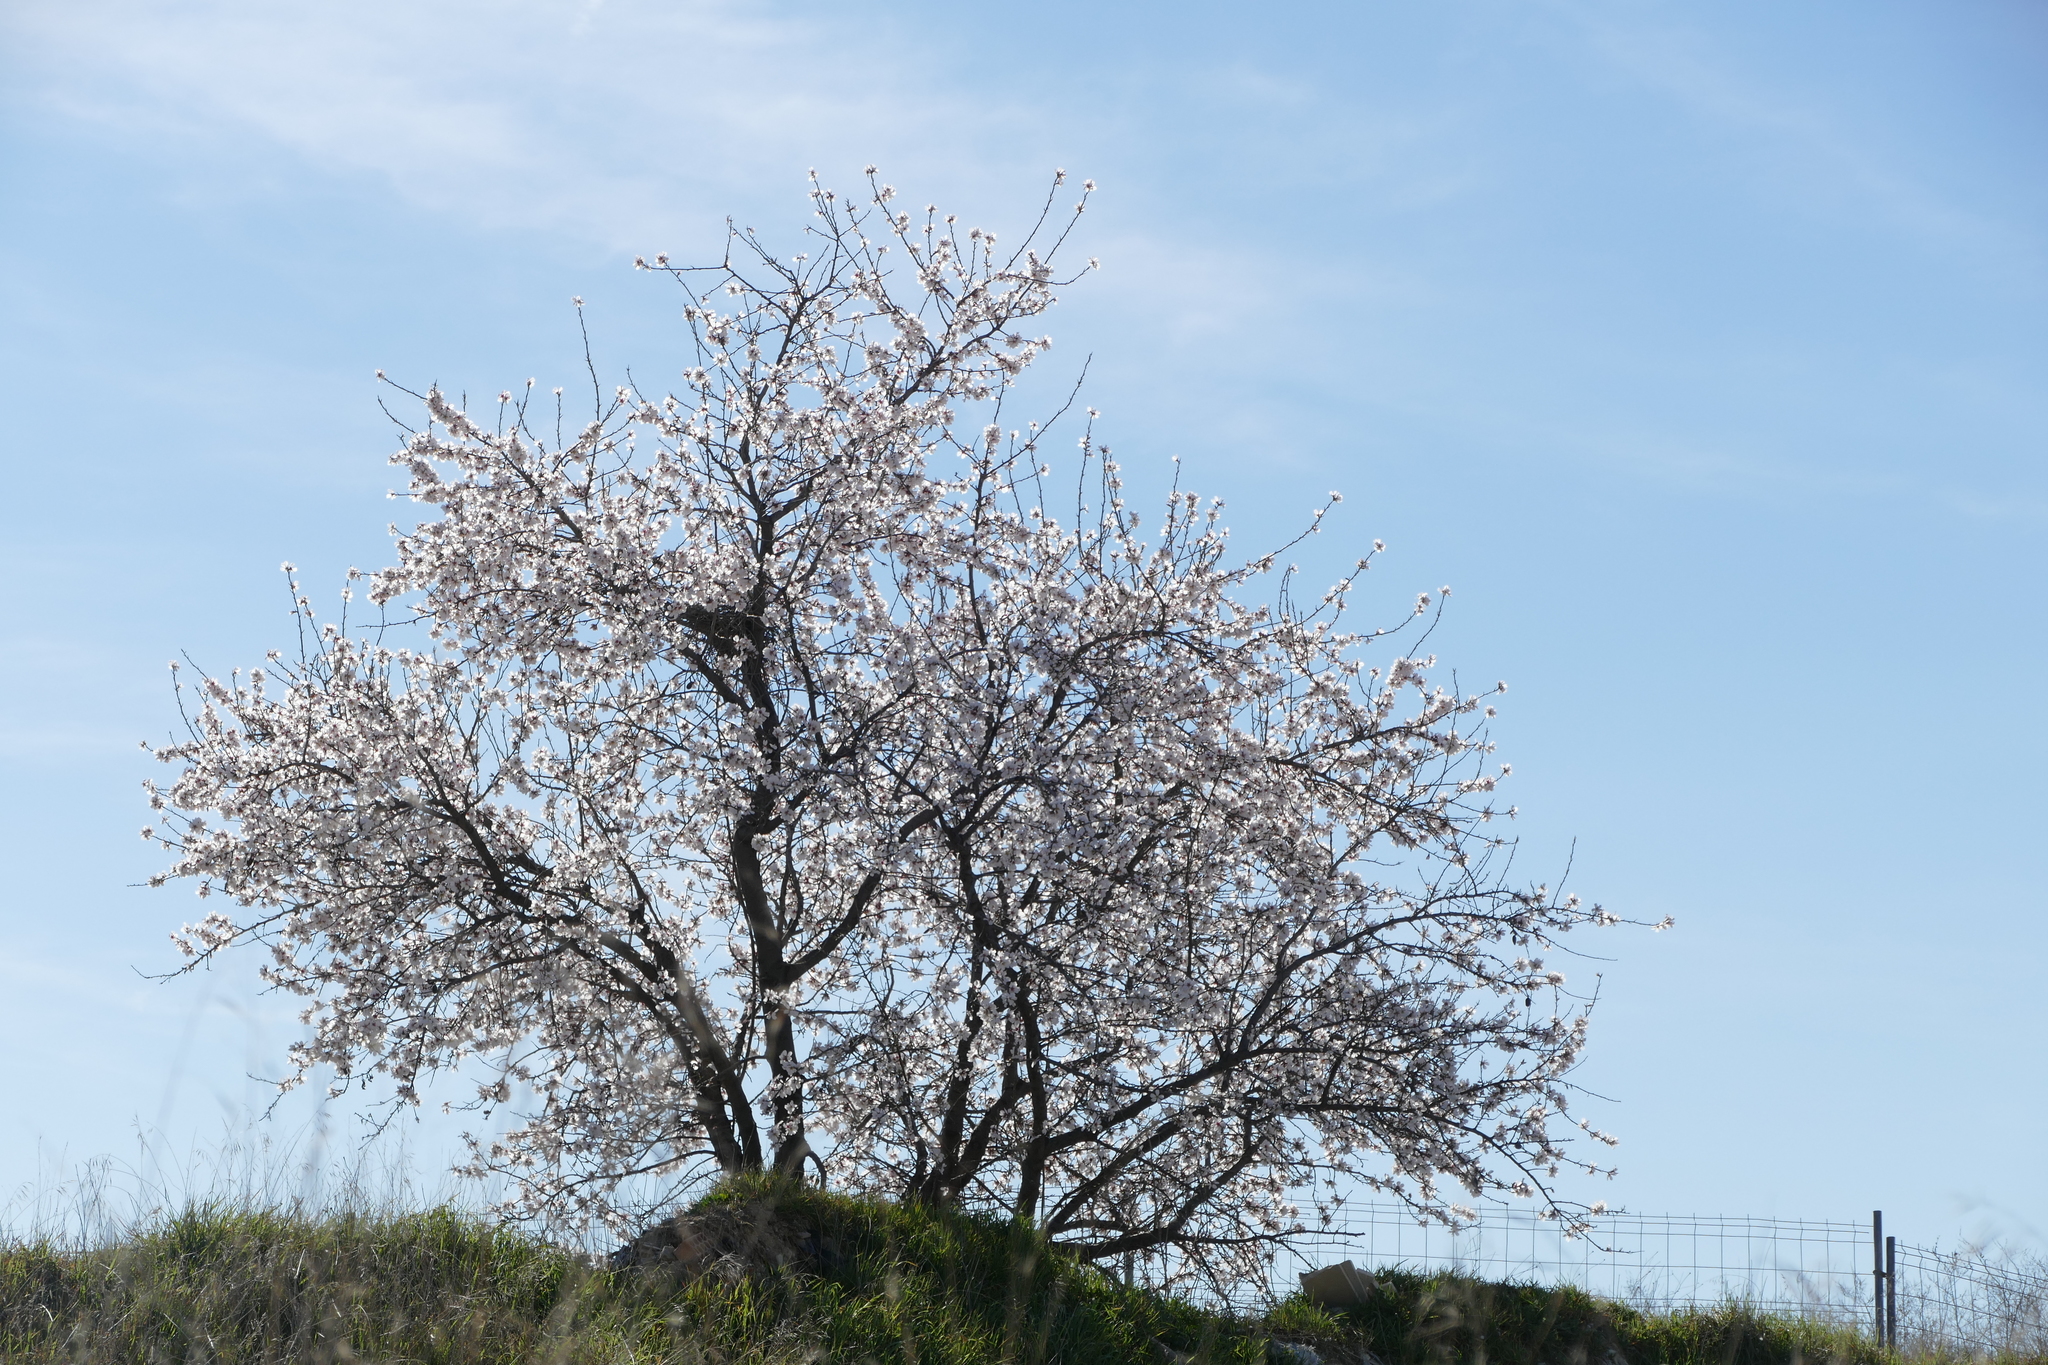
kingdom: Plantae
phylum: Tracheophyta
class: Magnoliopsida
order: Rosales
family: Rosaceae
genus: Prunus
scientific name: Prunus amygdalus
